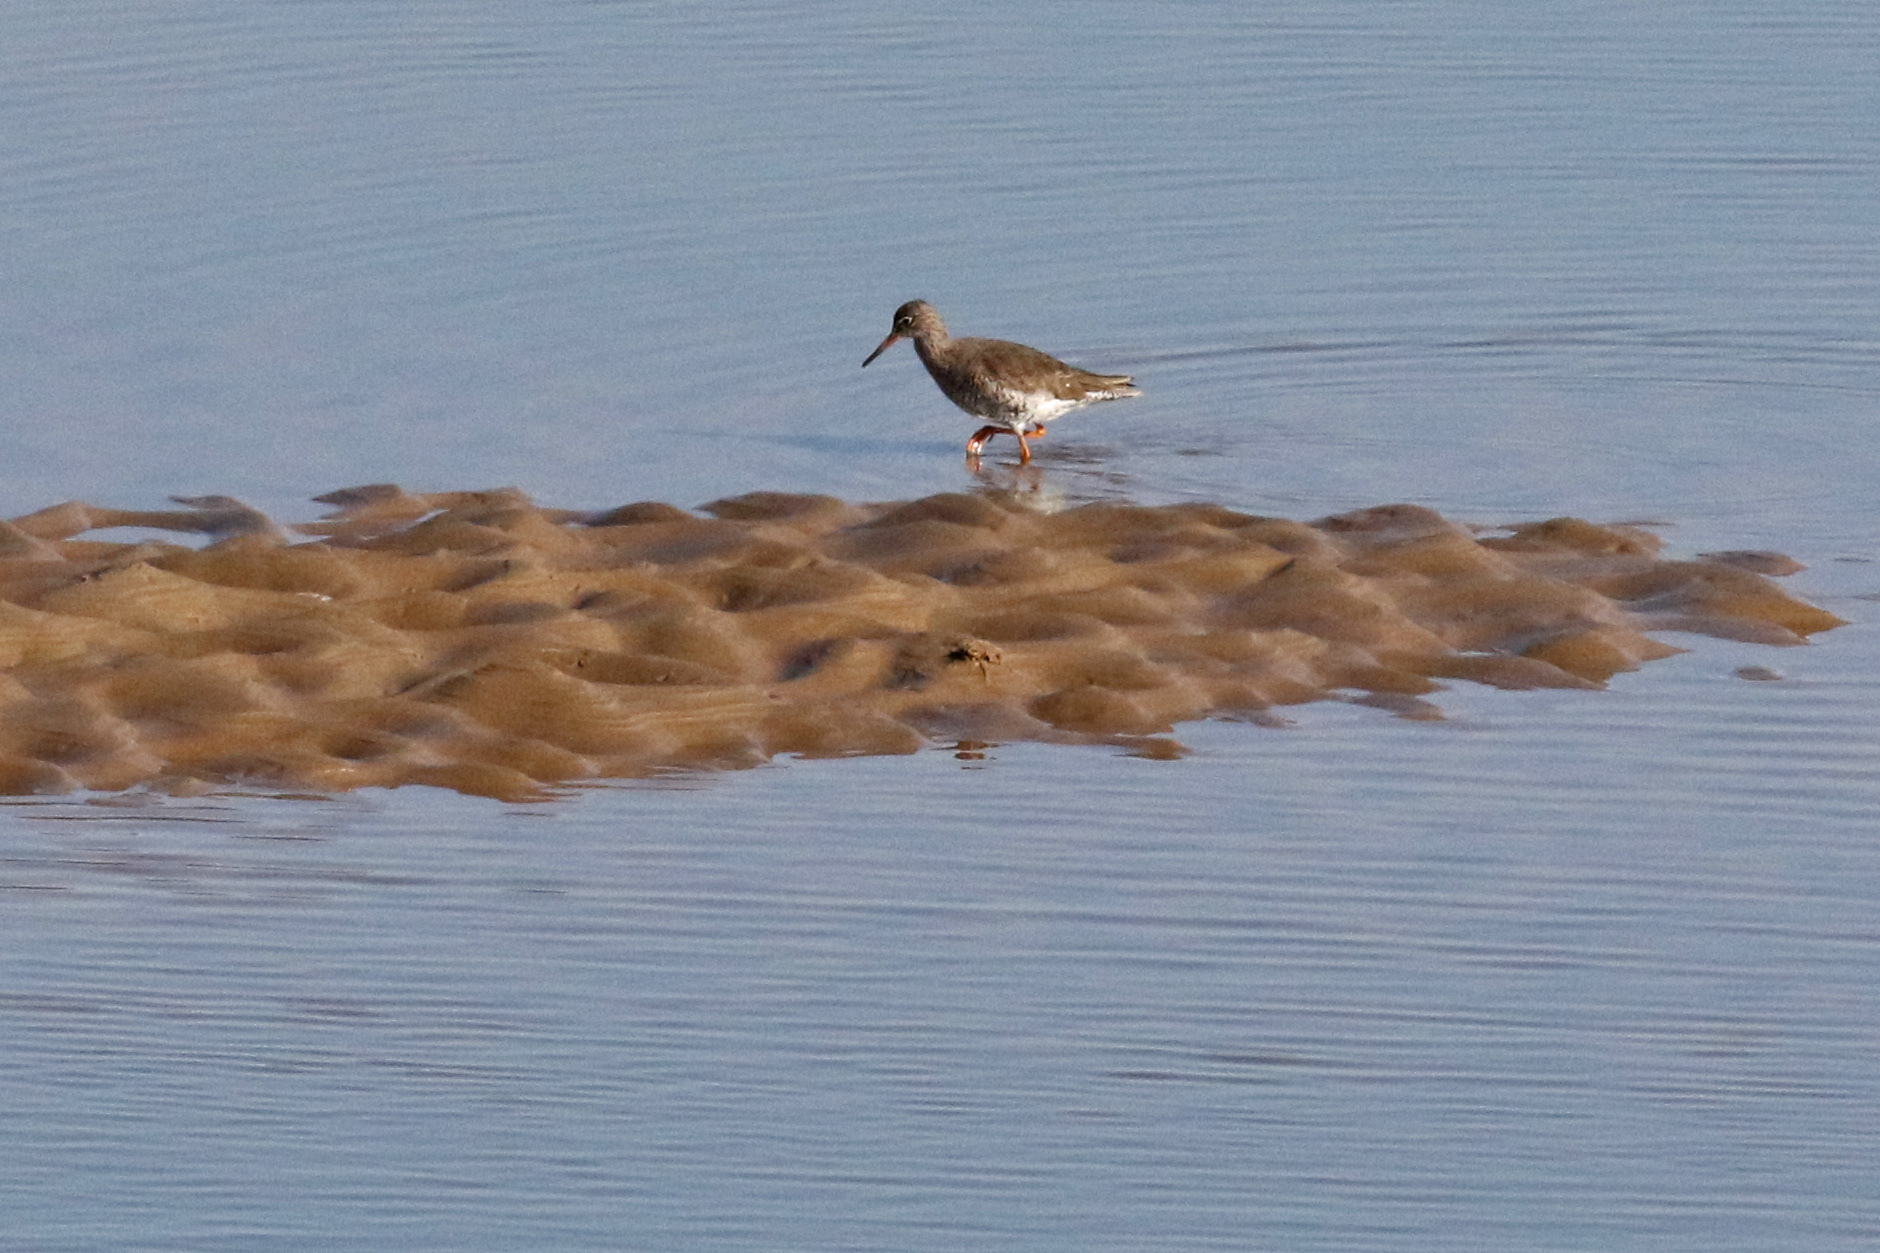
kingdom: Animalia
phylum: Chordata
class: Aves
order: Charadriiformes
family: Scolopacidae
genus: Tringa
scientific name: Tringa totanus
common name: Common redshank
